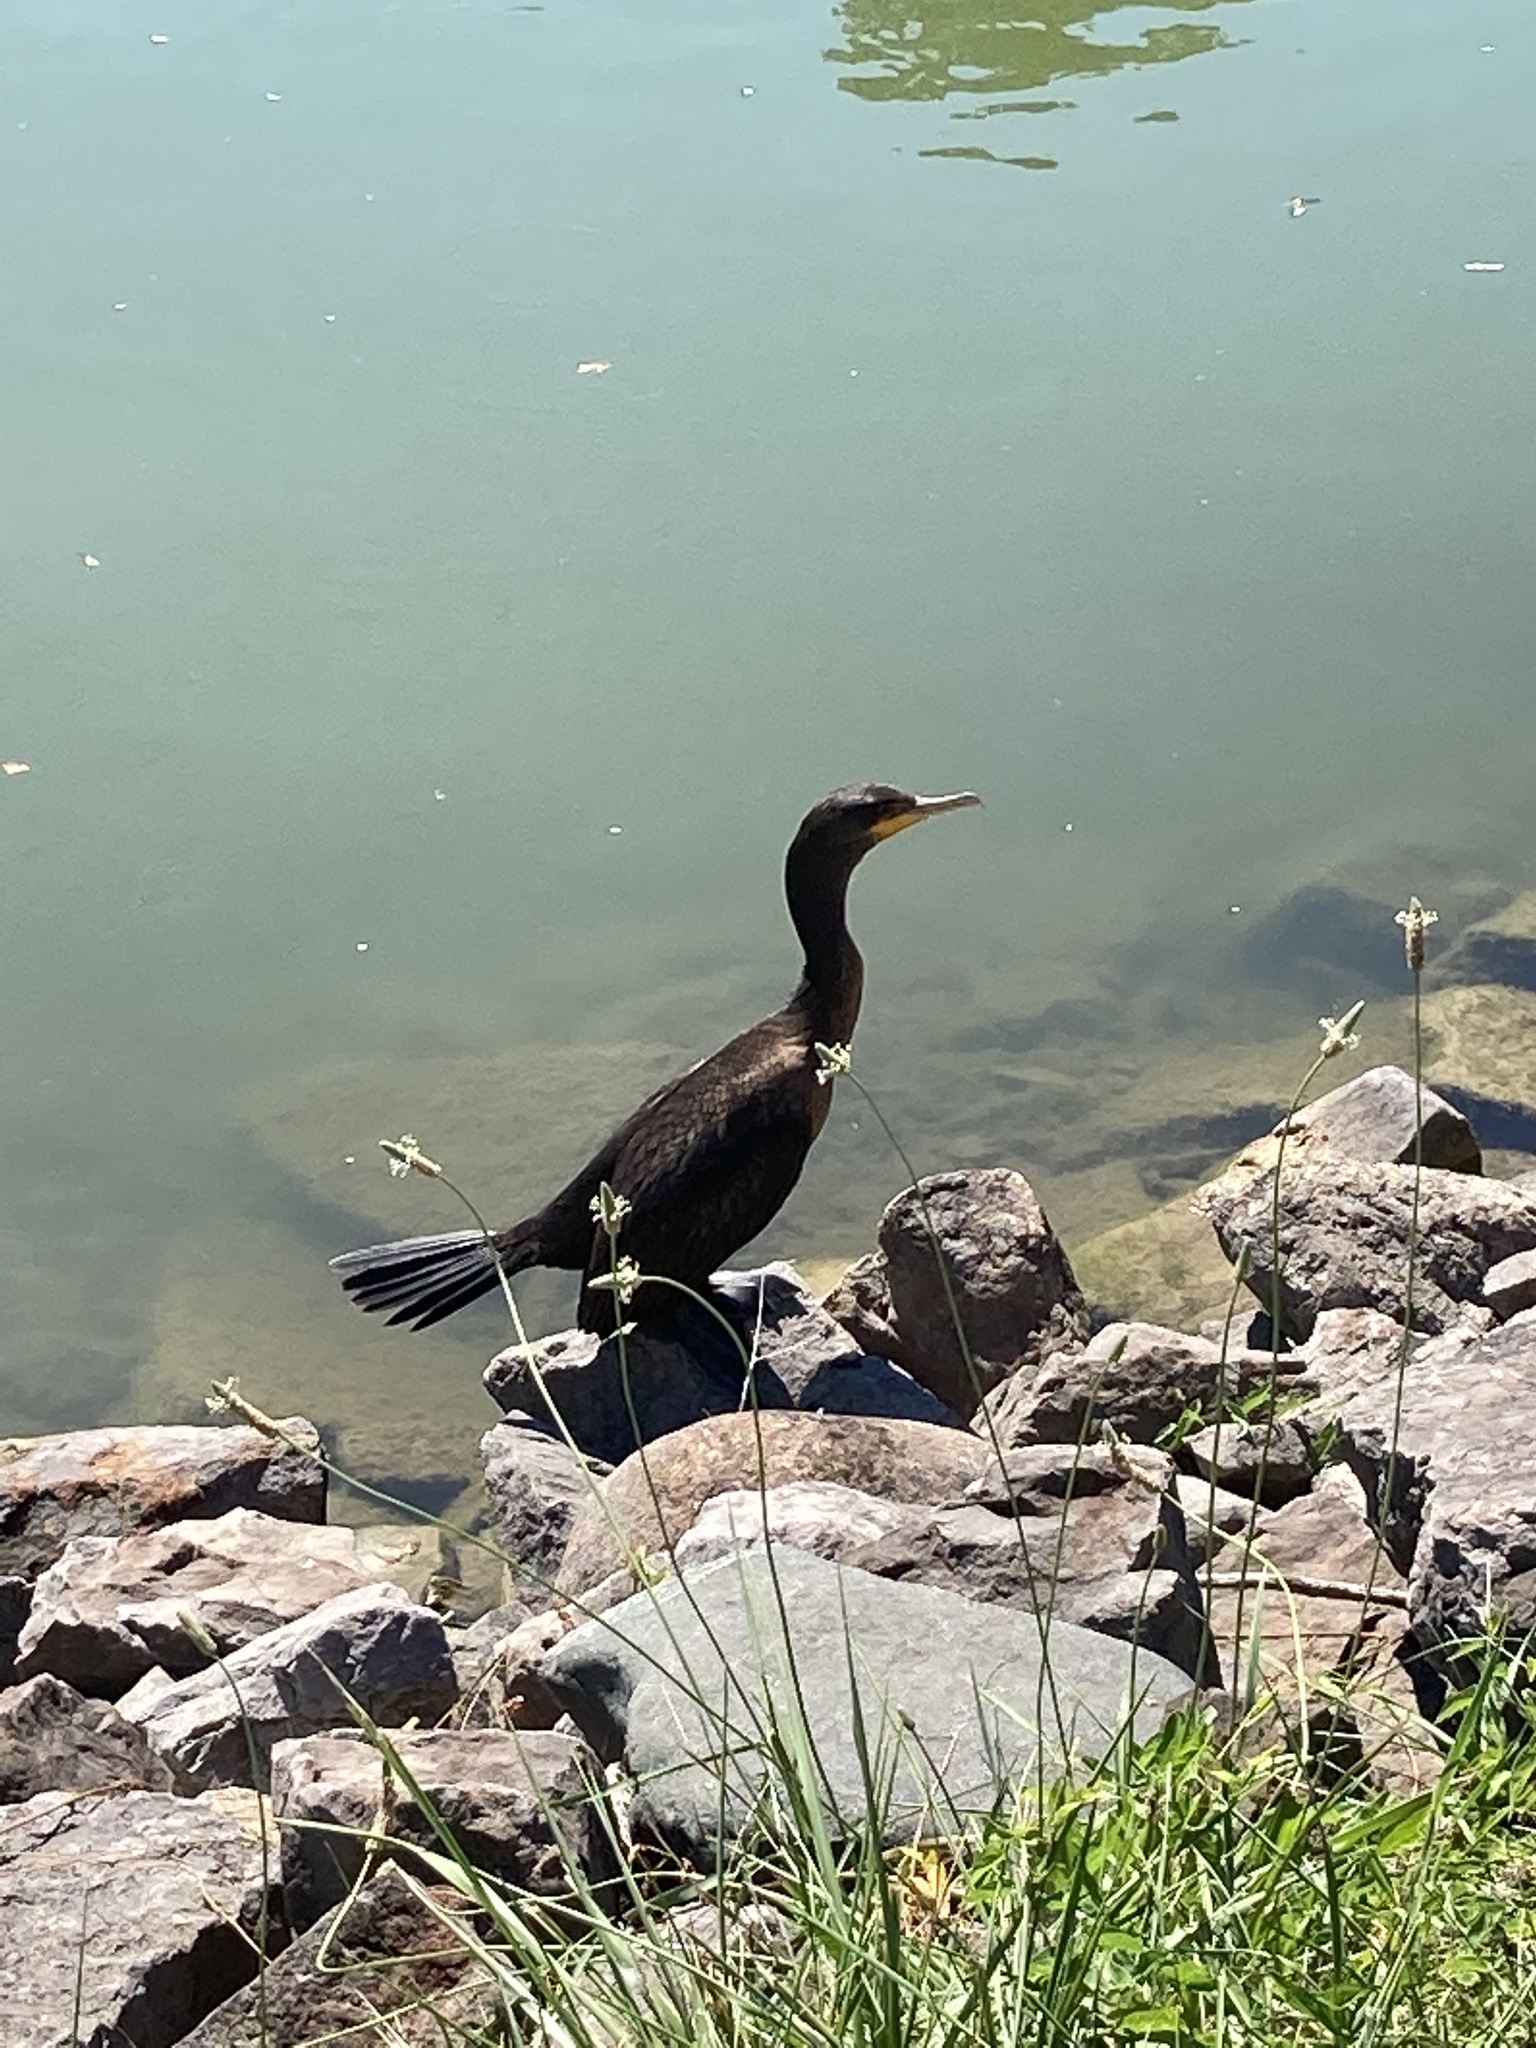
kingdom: Animalia
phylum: Chordata
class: Aves
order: Suliformes
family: Phalacrocoracidae
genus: Phalacrocorax
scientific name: Phalacrocorax auritus
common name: Double-crested cormorant
